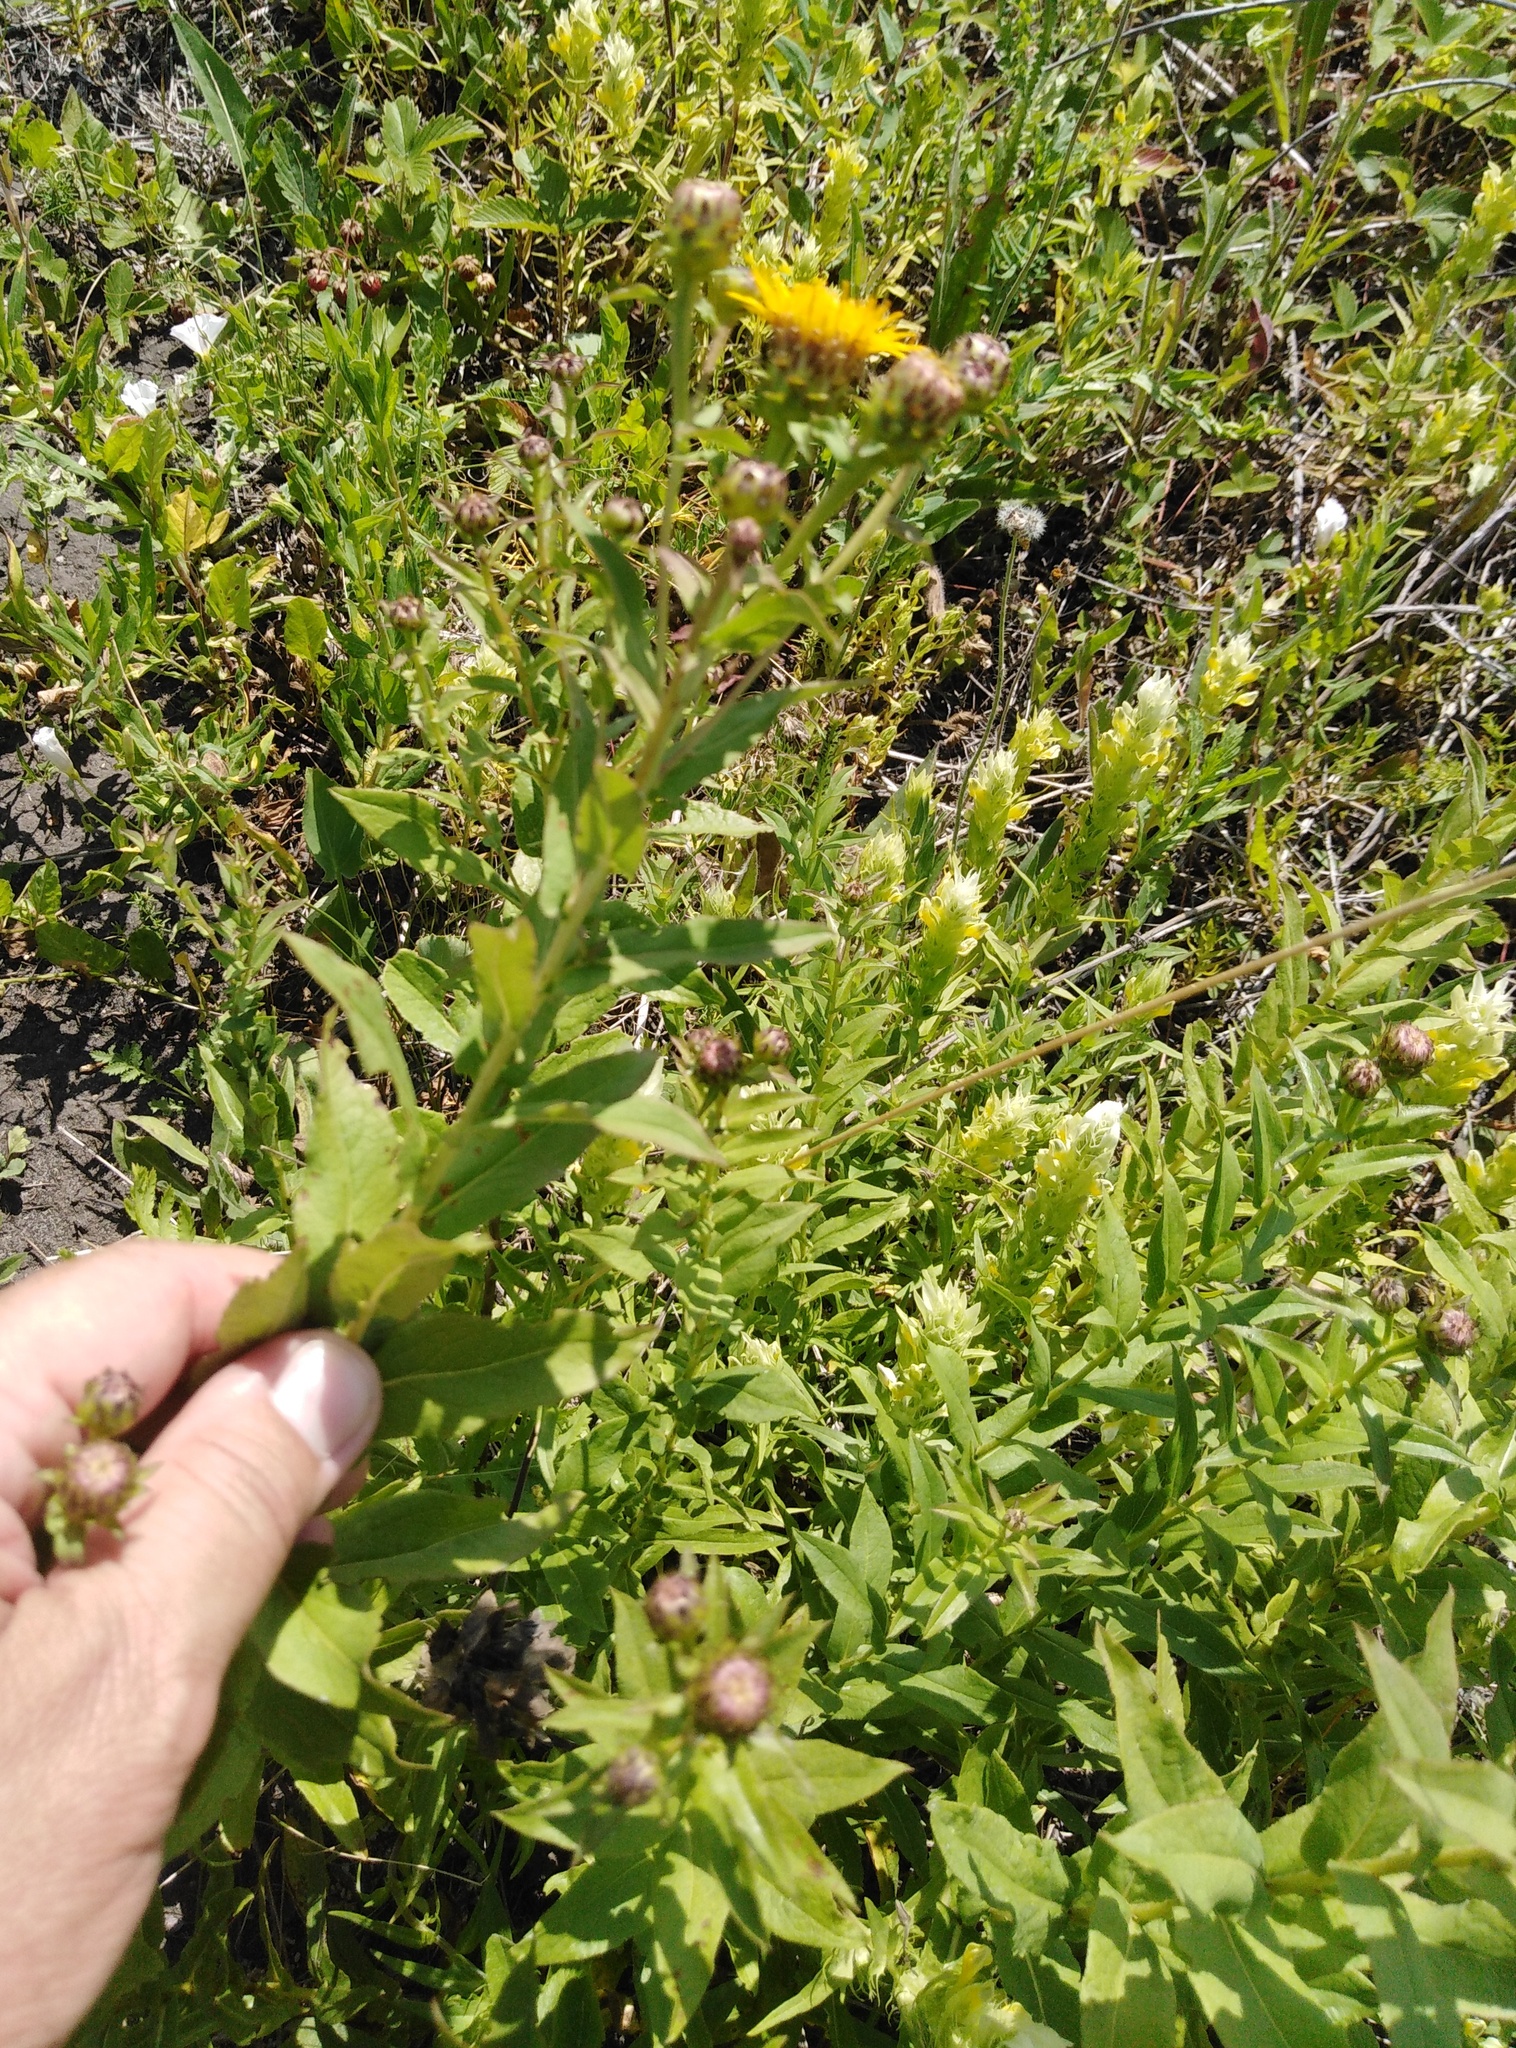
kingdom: Plantae
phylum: Tracheophyta
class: Magnoliopsida
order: Asterales
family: Asteraceae
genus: Pentanema
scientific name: Pentanema salicinum
